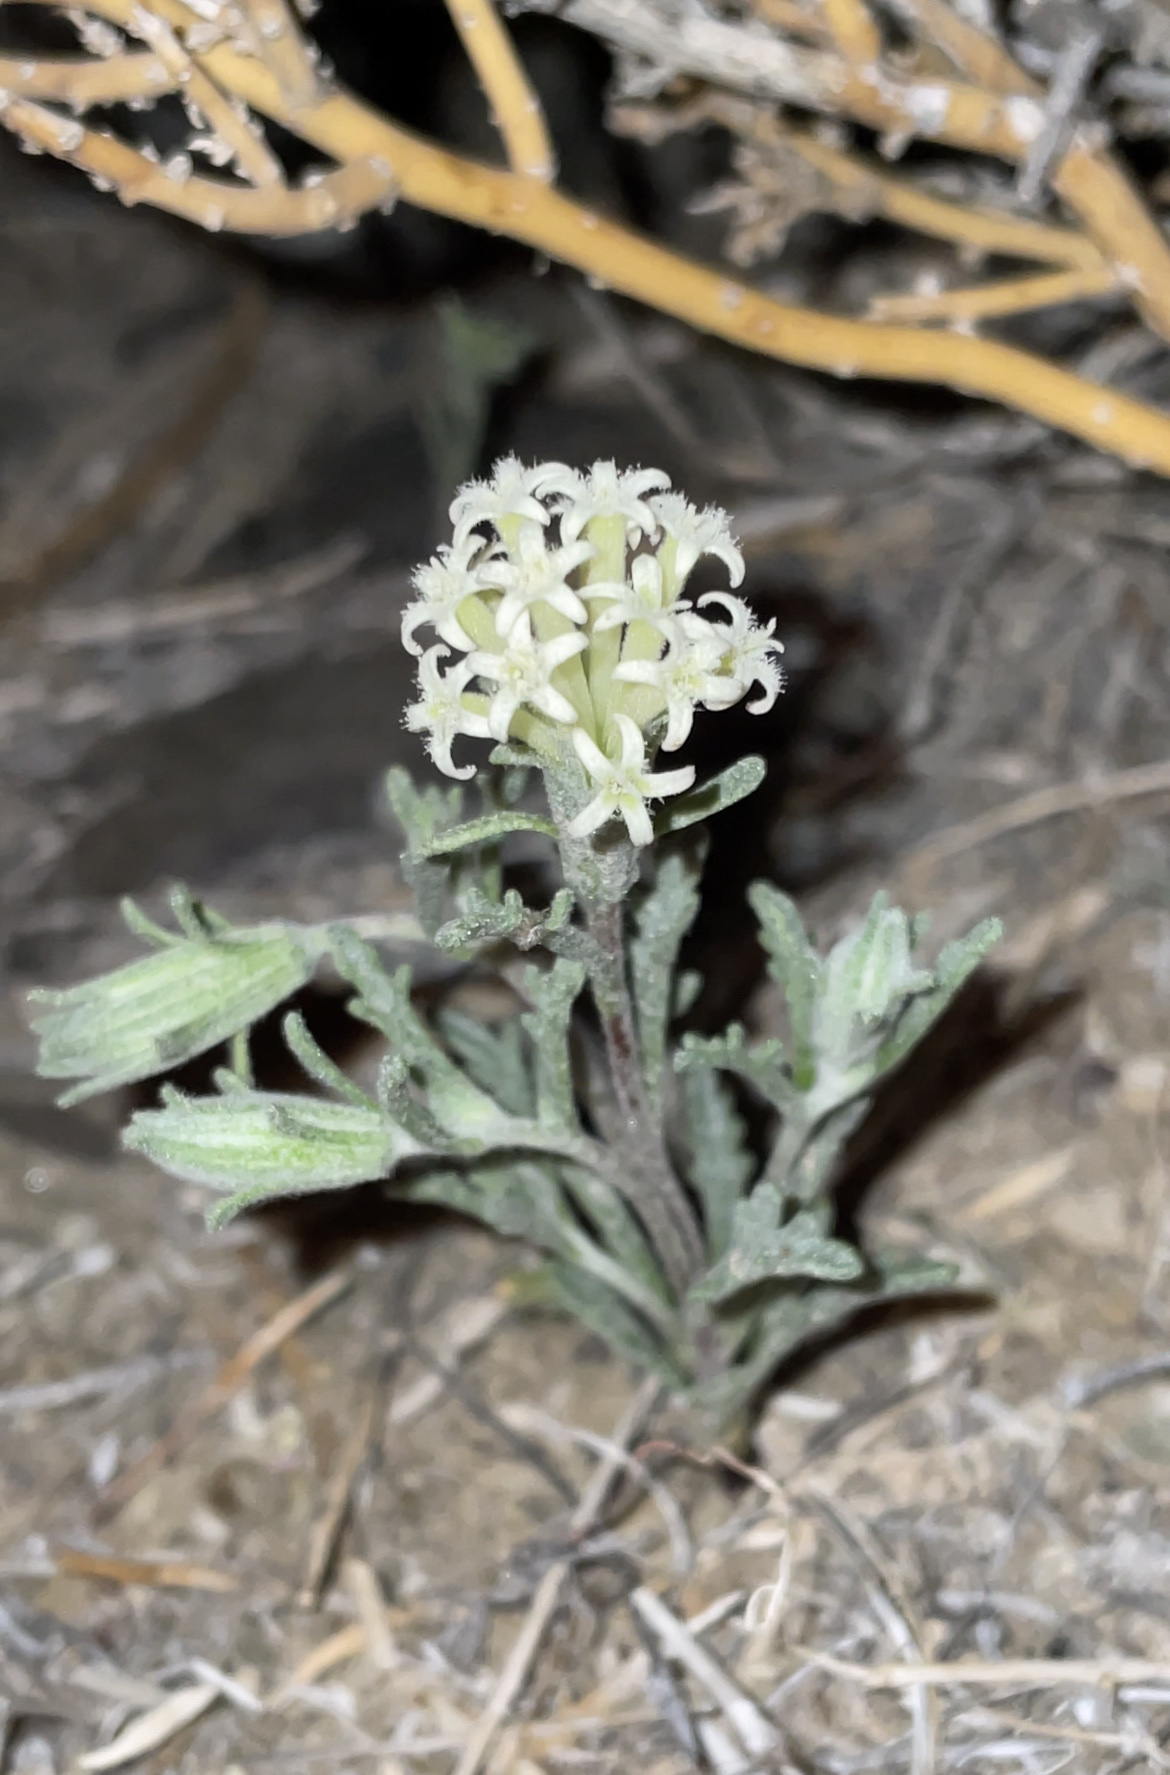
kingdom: Plantae
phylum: Tracheophyta
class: Magnoliopsida
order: Asterales
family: Asteraceae
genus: Chaenactis
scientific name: Chaenactis macrantha
